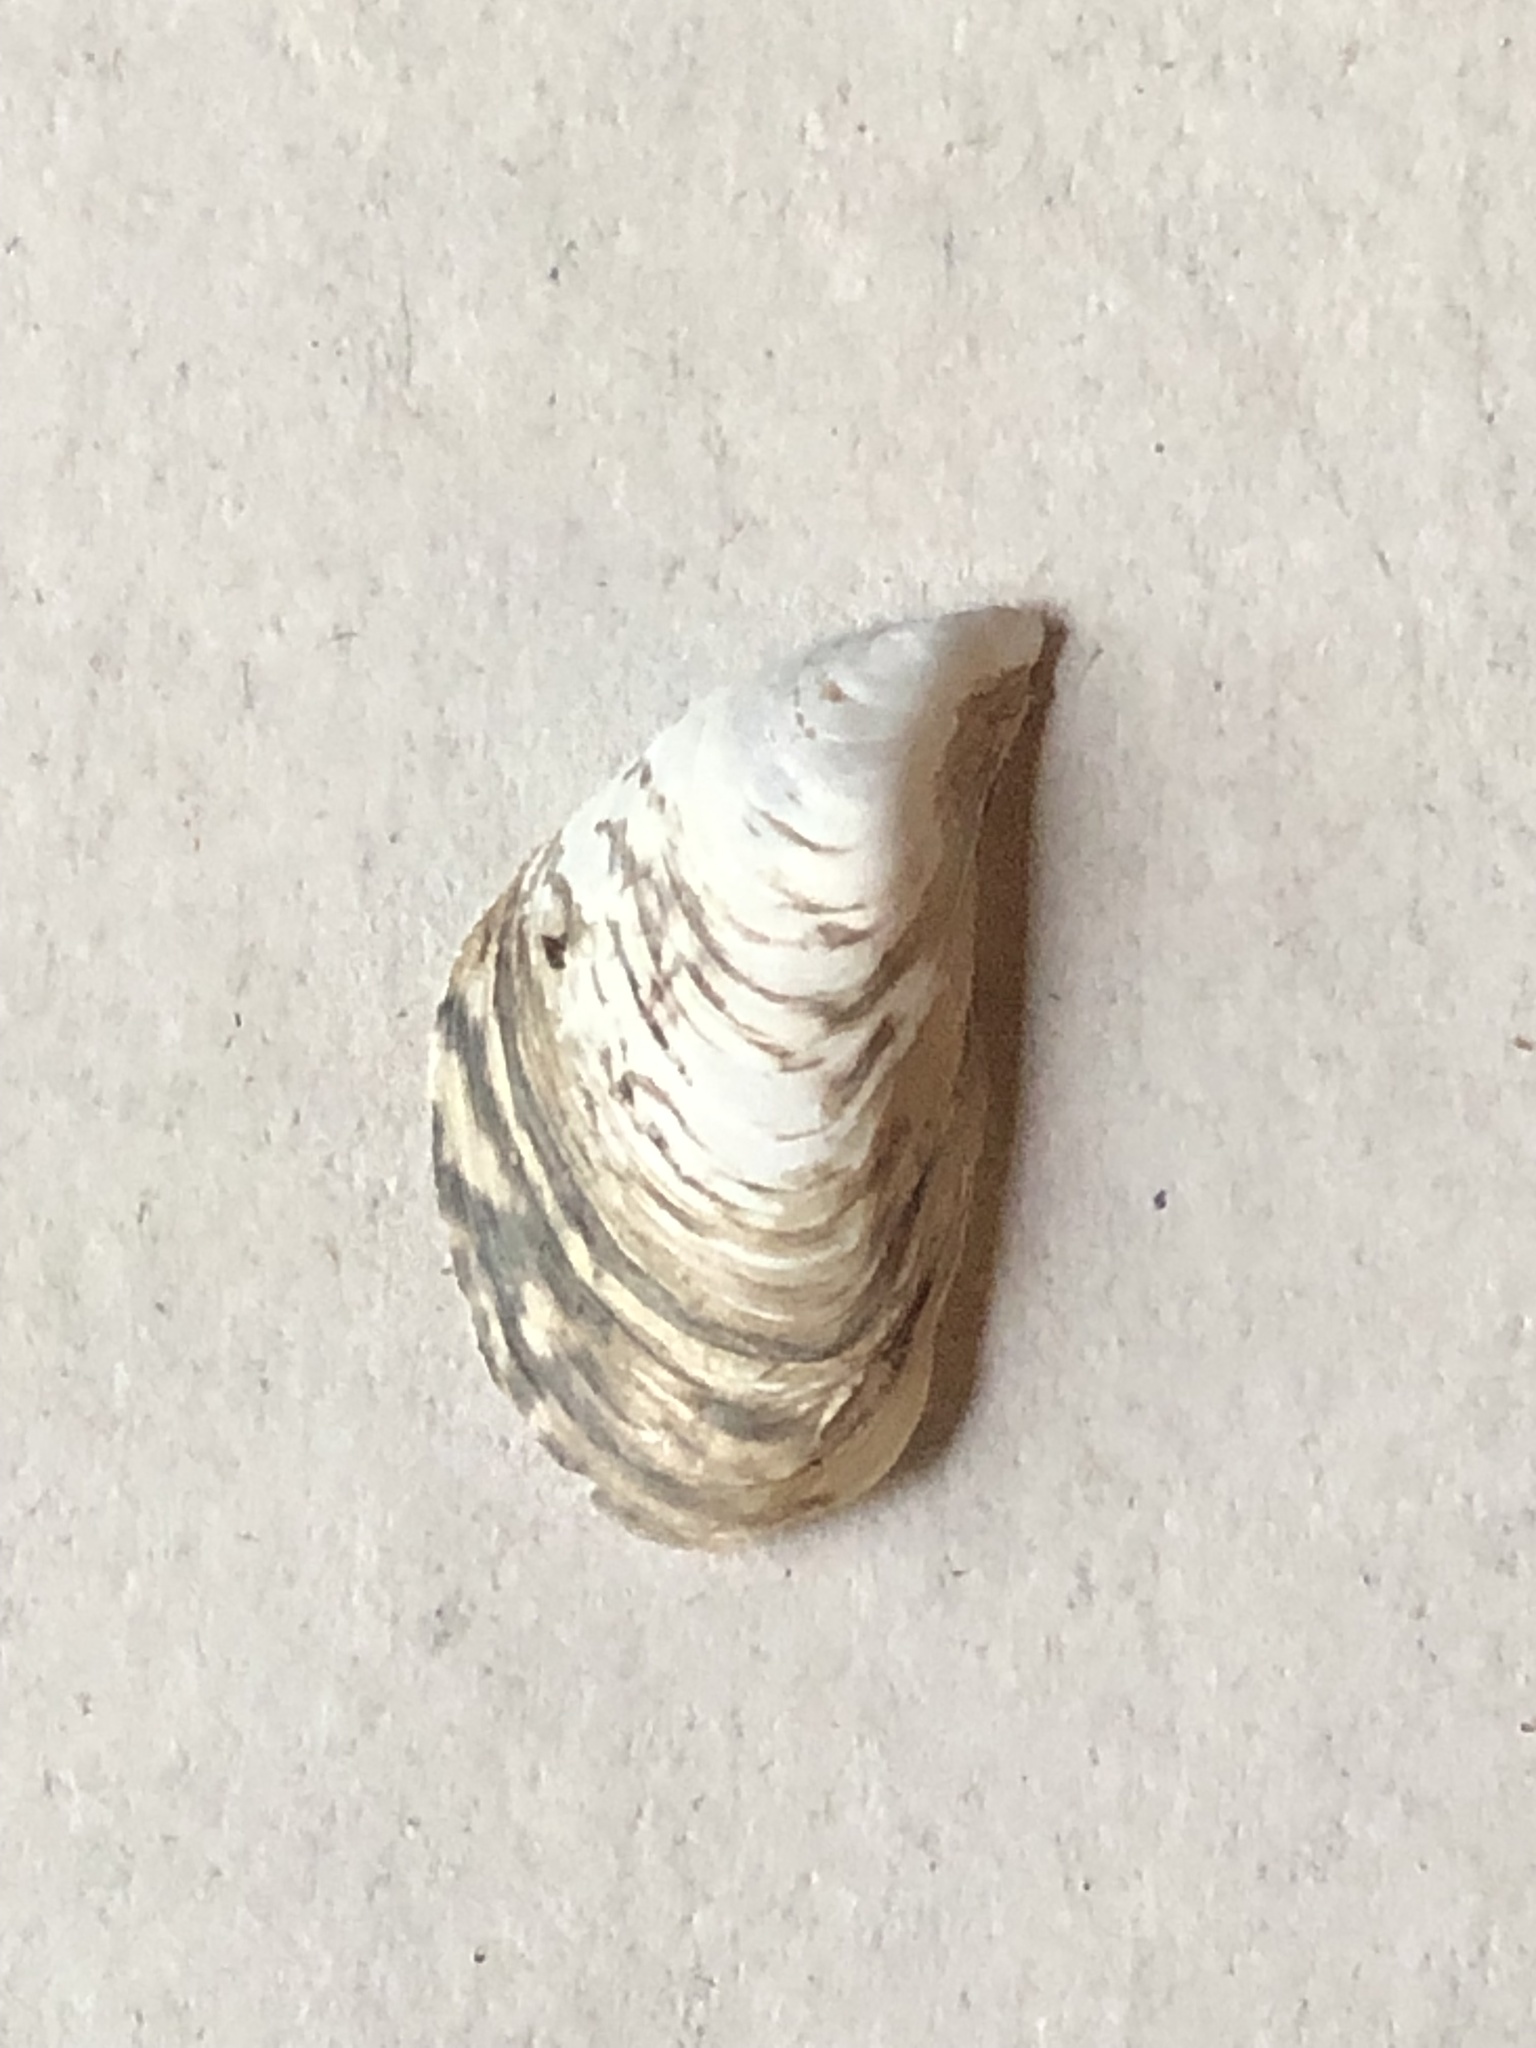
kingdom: Animalia
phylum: Mollusca
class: Bivalvia
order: Myida
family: Dreissenidae
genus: Dreissena
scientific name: Dreissena bugensis
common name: Quagga mussel
